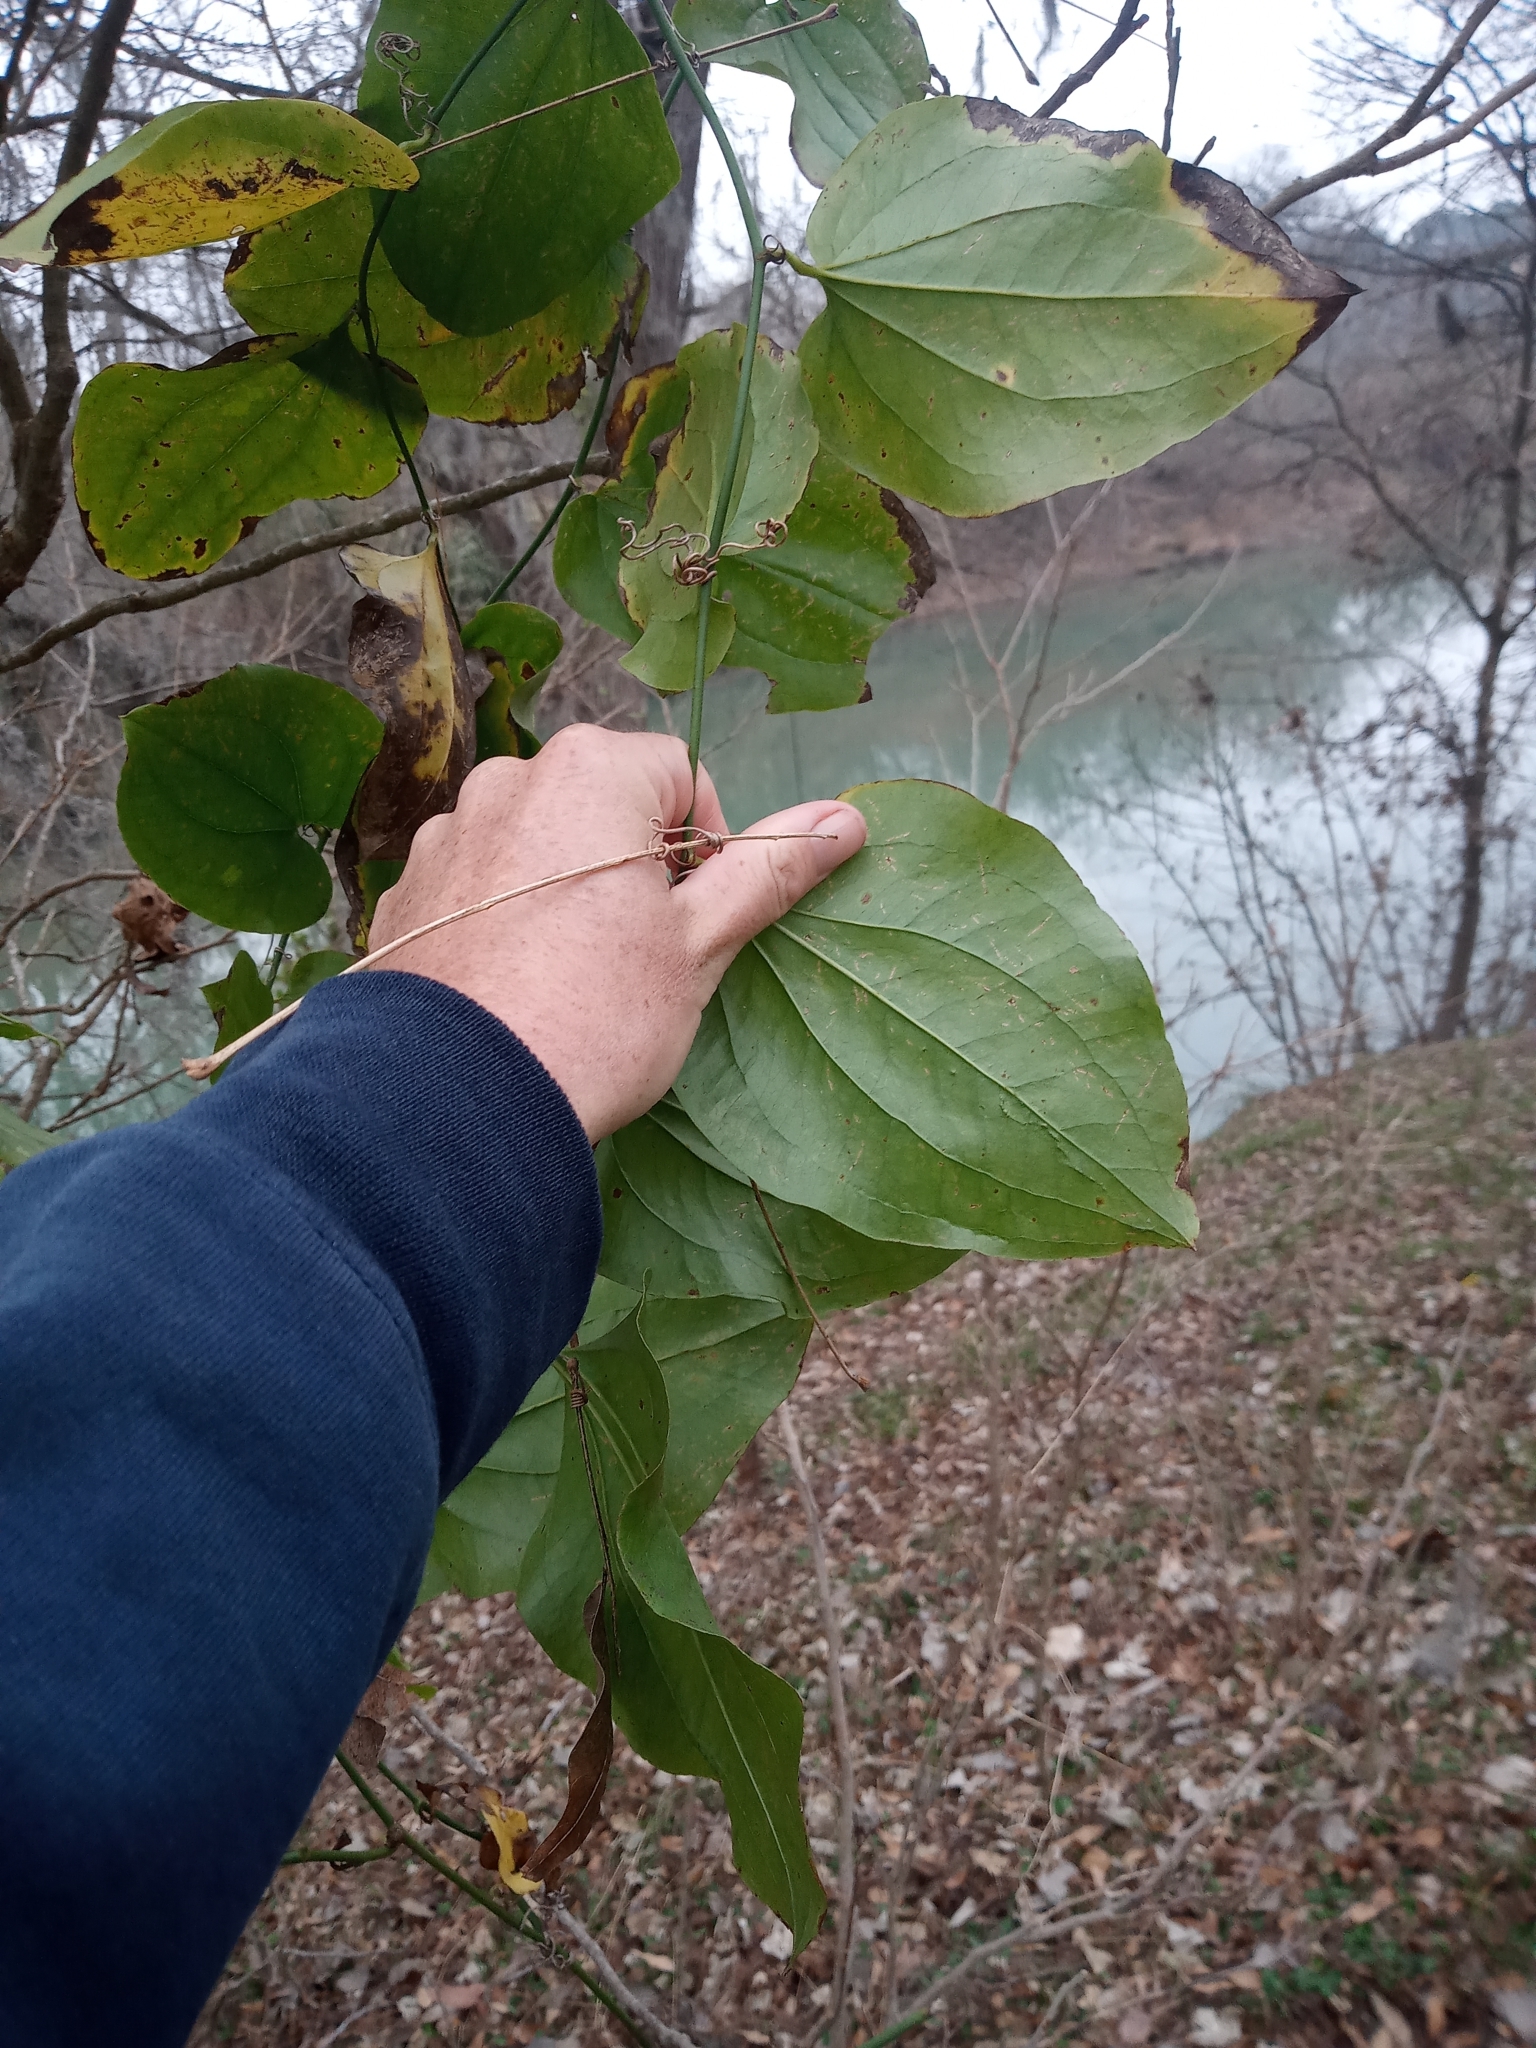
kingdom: Plantae
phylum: Tracheophyta
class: Liliopsida
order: Liliales
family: Smilacaceae
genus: Smilax
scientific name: Smilax tamnoides
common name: Hellfetter
